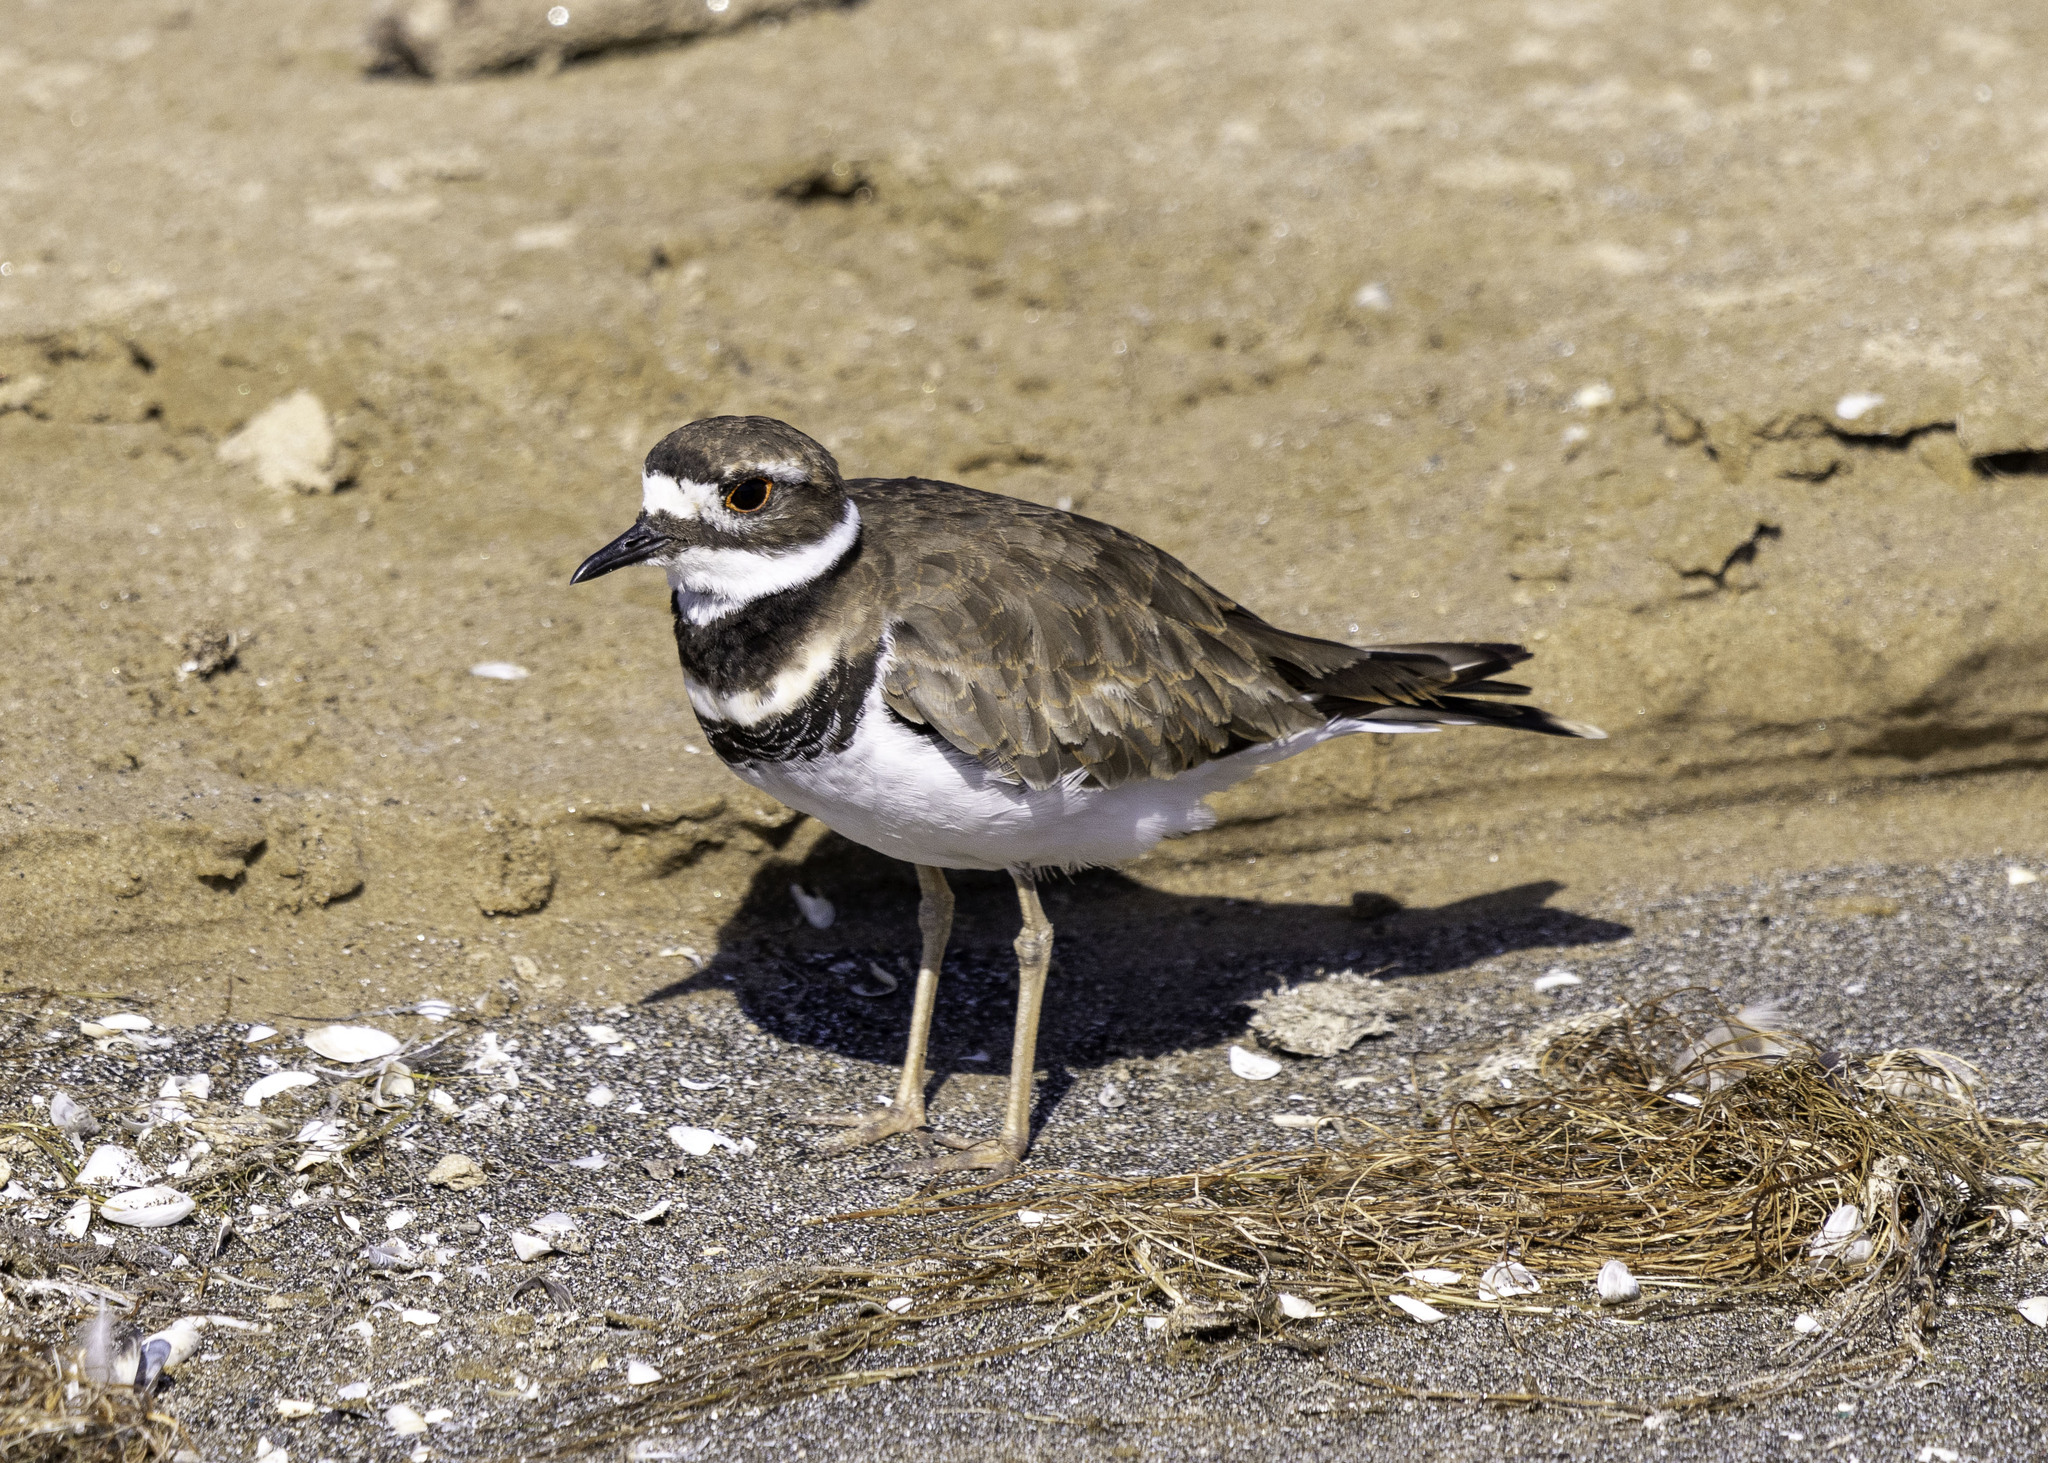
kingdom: Animalia
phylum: Chordata
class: Aves
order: Charadriiformes
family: Charadriidae
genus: Charadrius
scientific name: Charadrius vociferus
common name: Killdeer
